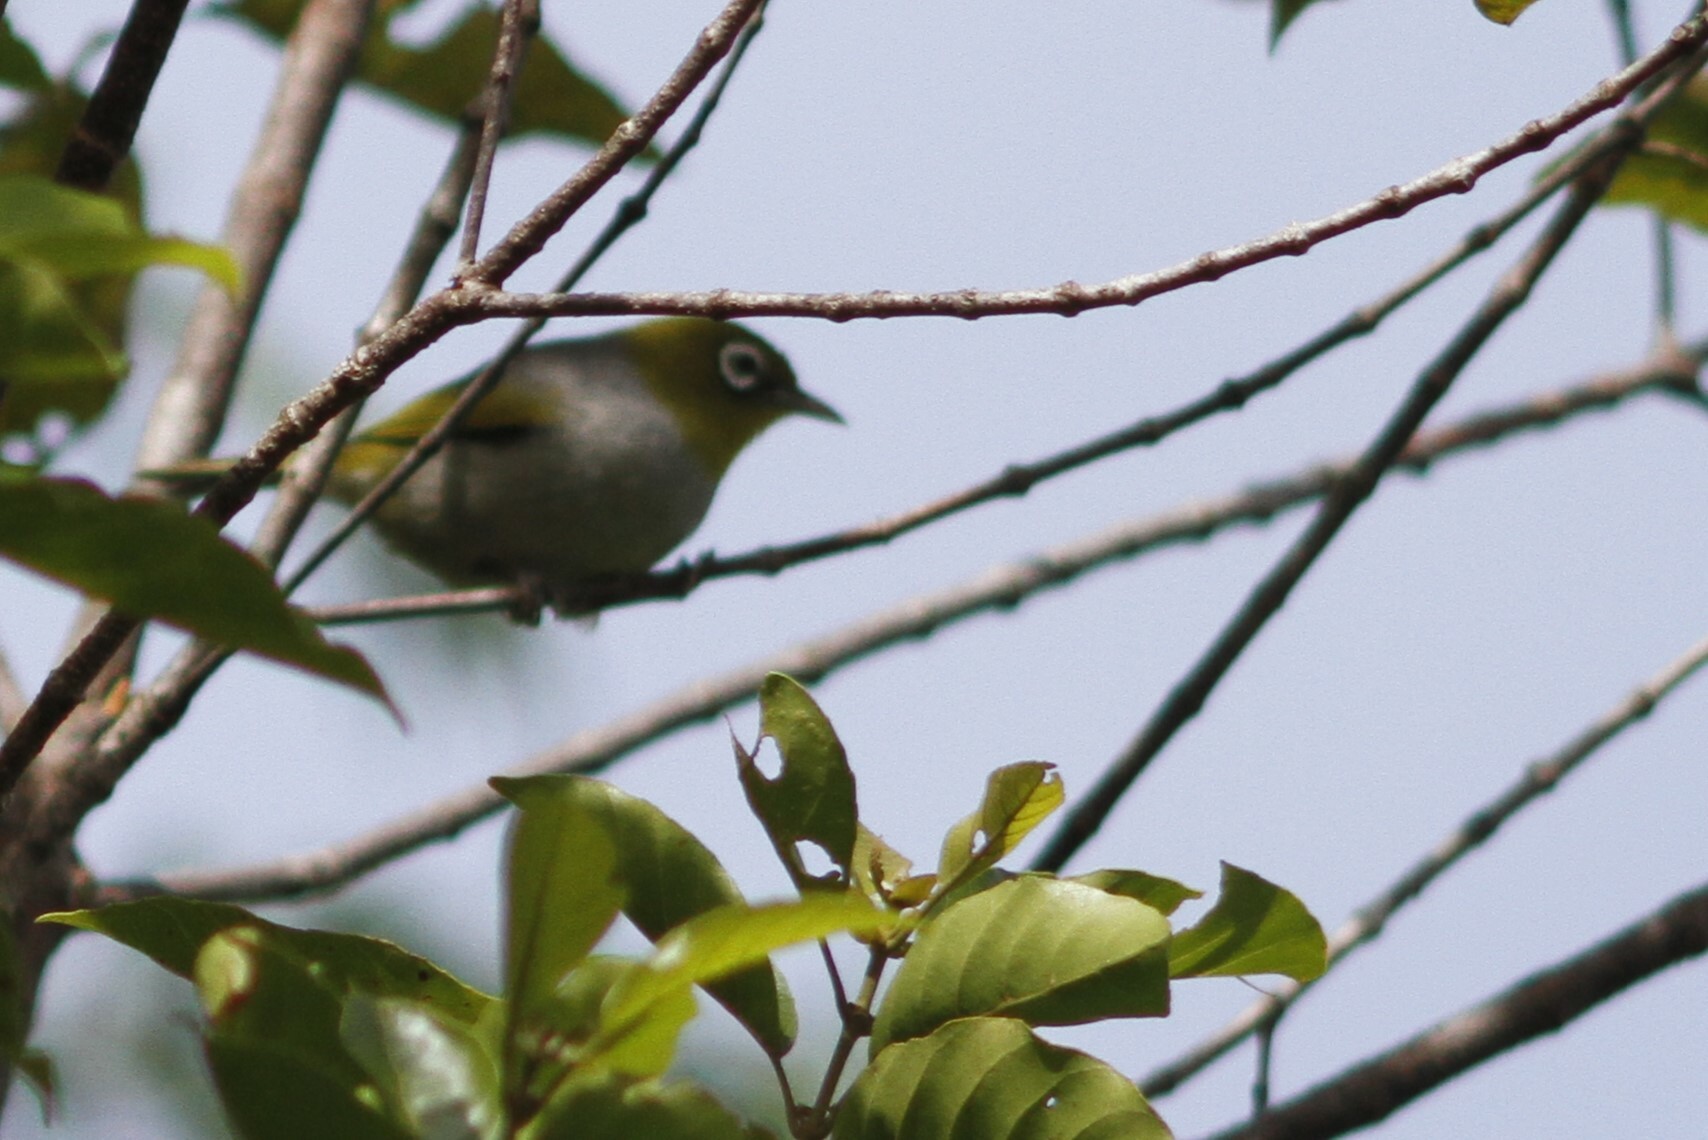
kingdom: Animalia
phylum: Chordata
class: Aves
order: Passeriformes
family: Zosteropidae
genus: Zosterops
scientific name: Zosterops lateralis
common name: Silvereye
